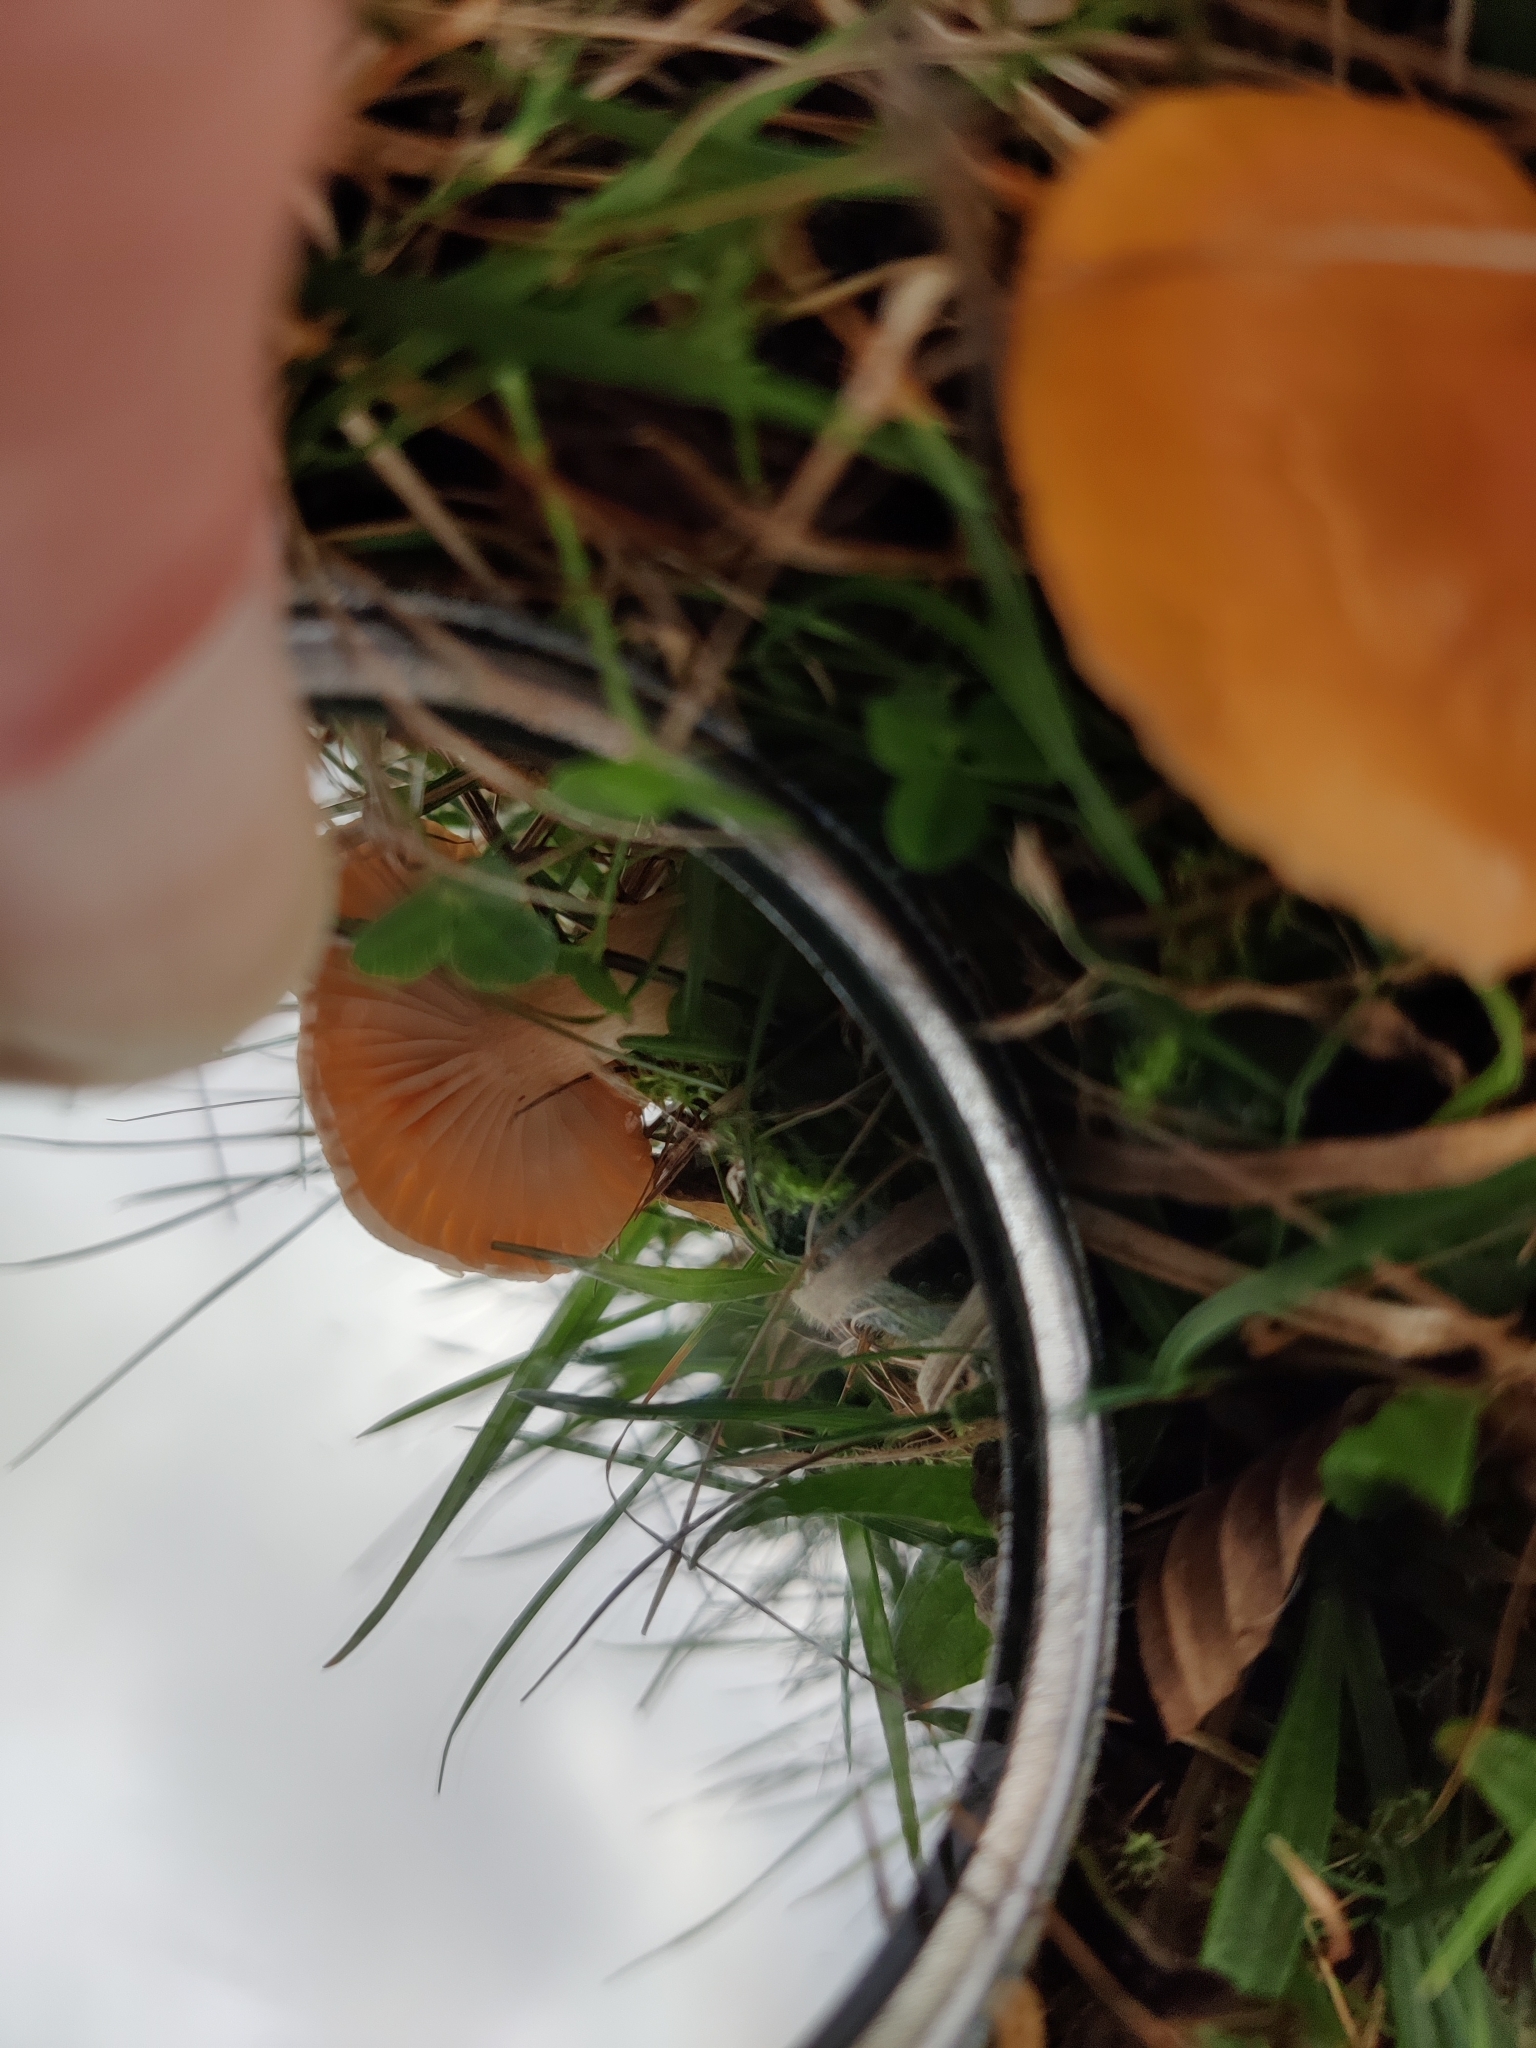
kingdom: Fungi
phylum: Basidiomycota
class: Agaricomycetes
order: Agaricales
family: Hygrophoraceae
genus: Cuphophyllus
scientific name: Cuphophyllus pratensis
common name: Meadow waxcap
